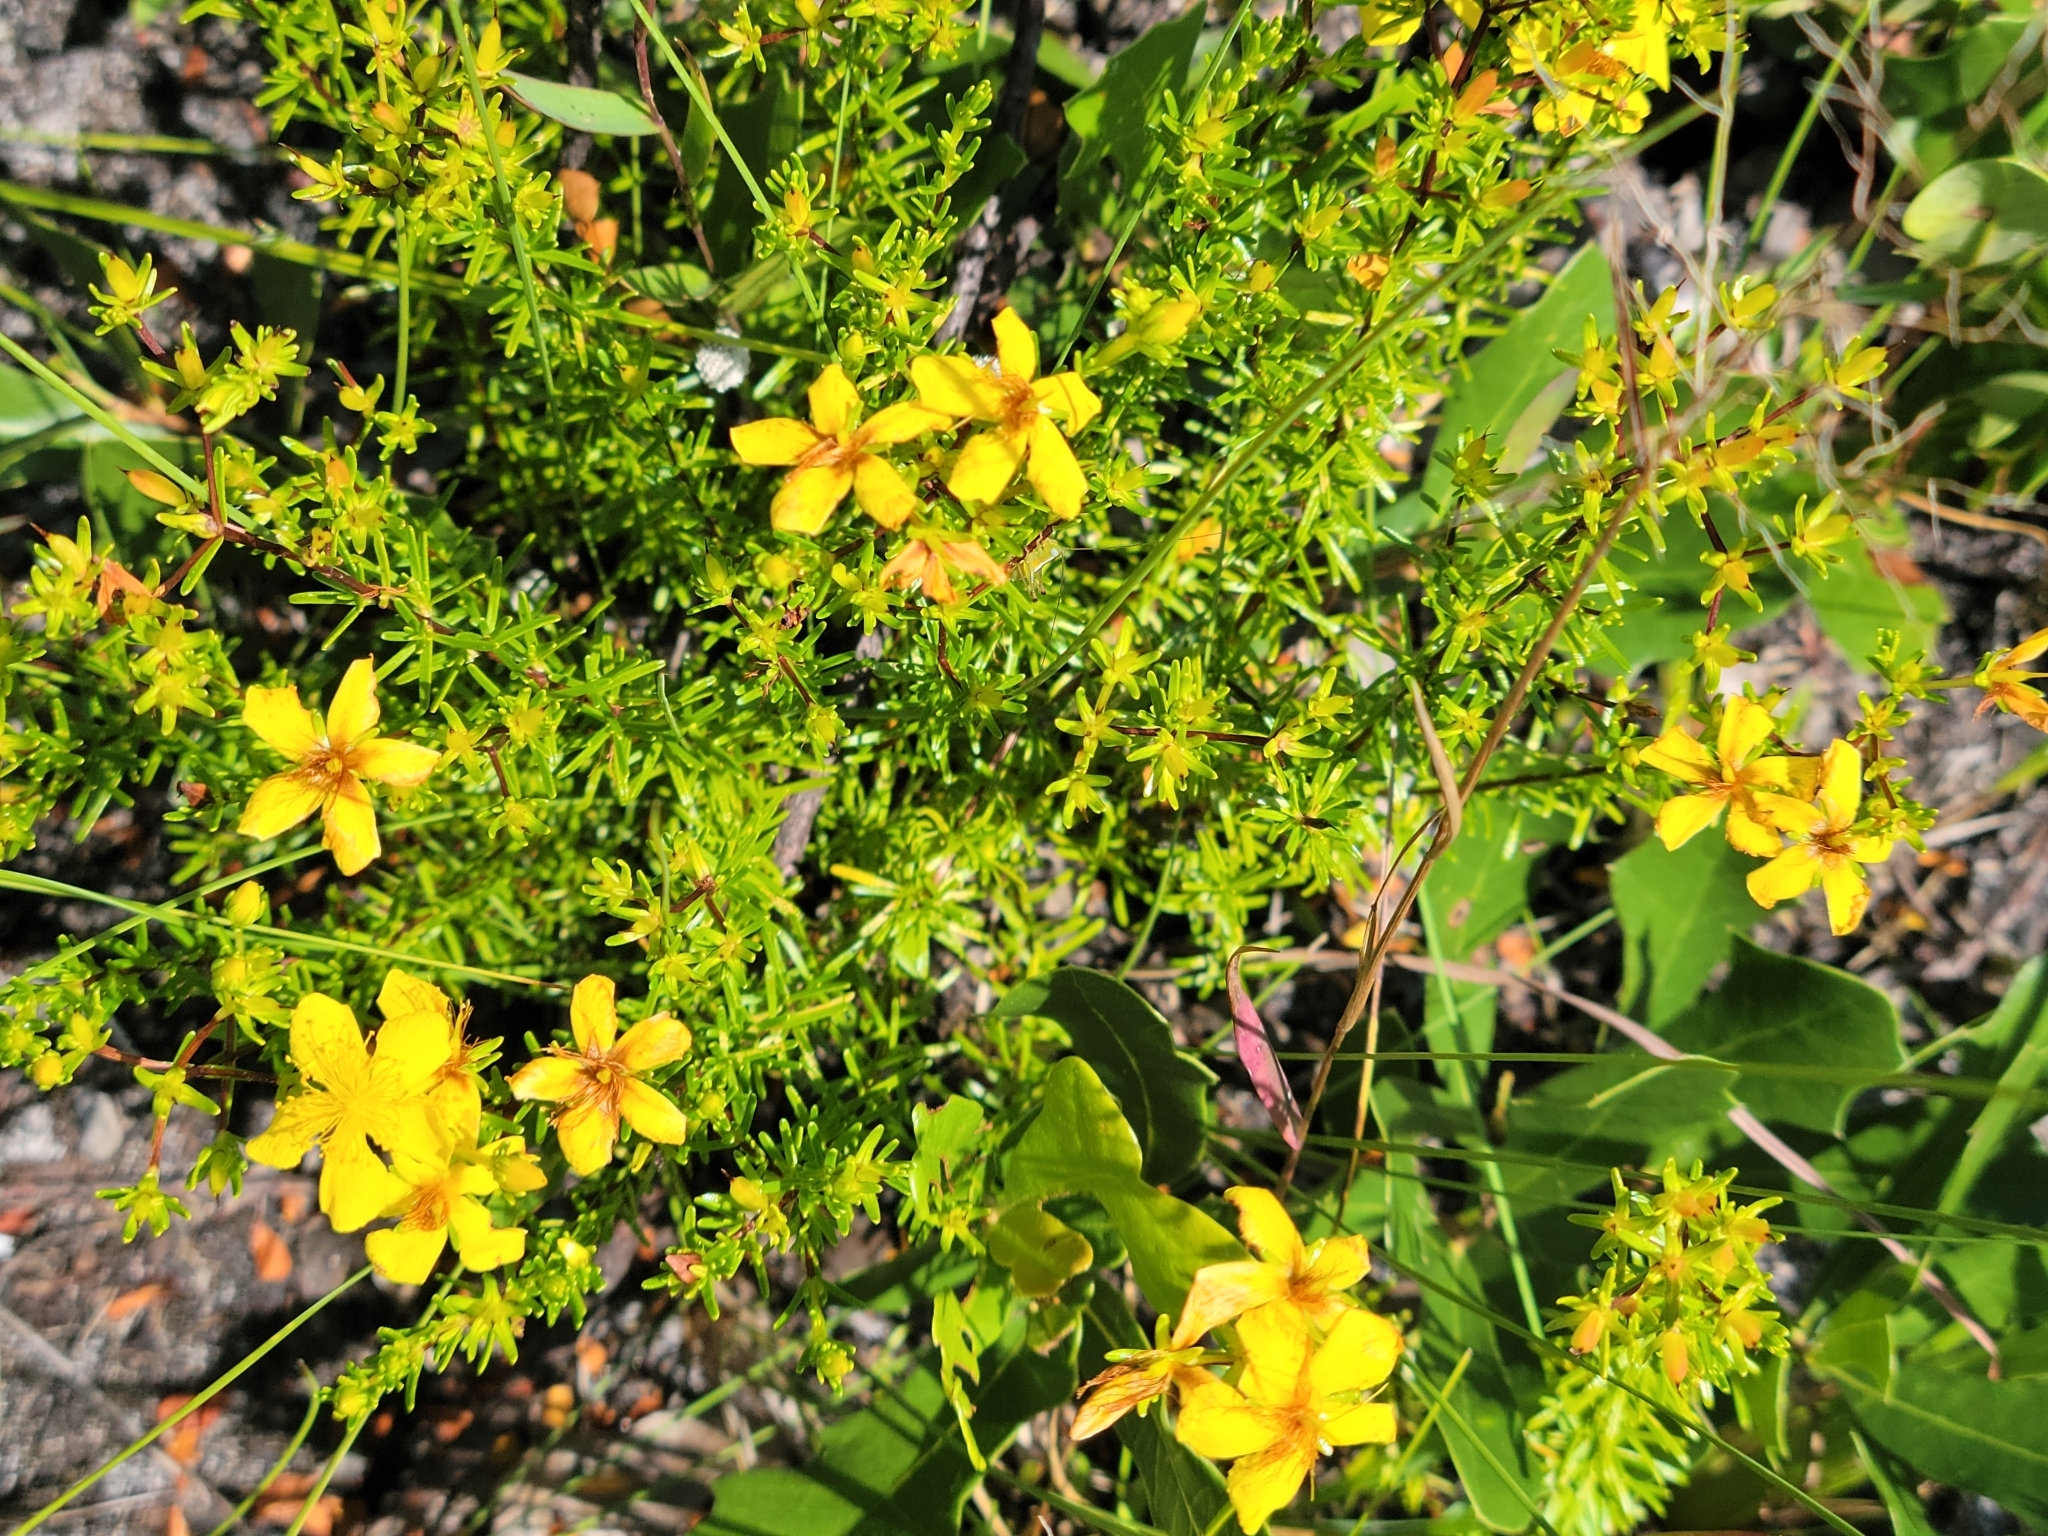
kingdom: Plantae
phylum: Tracheophyta
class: Magnoliopsida
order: Malpighiales
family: Hypericaceae
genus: Hypericum
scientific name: Hypericum tenuifolium
